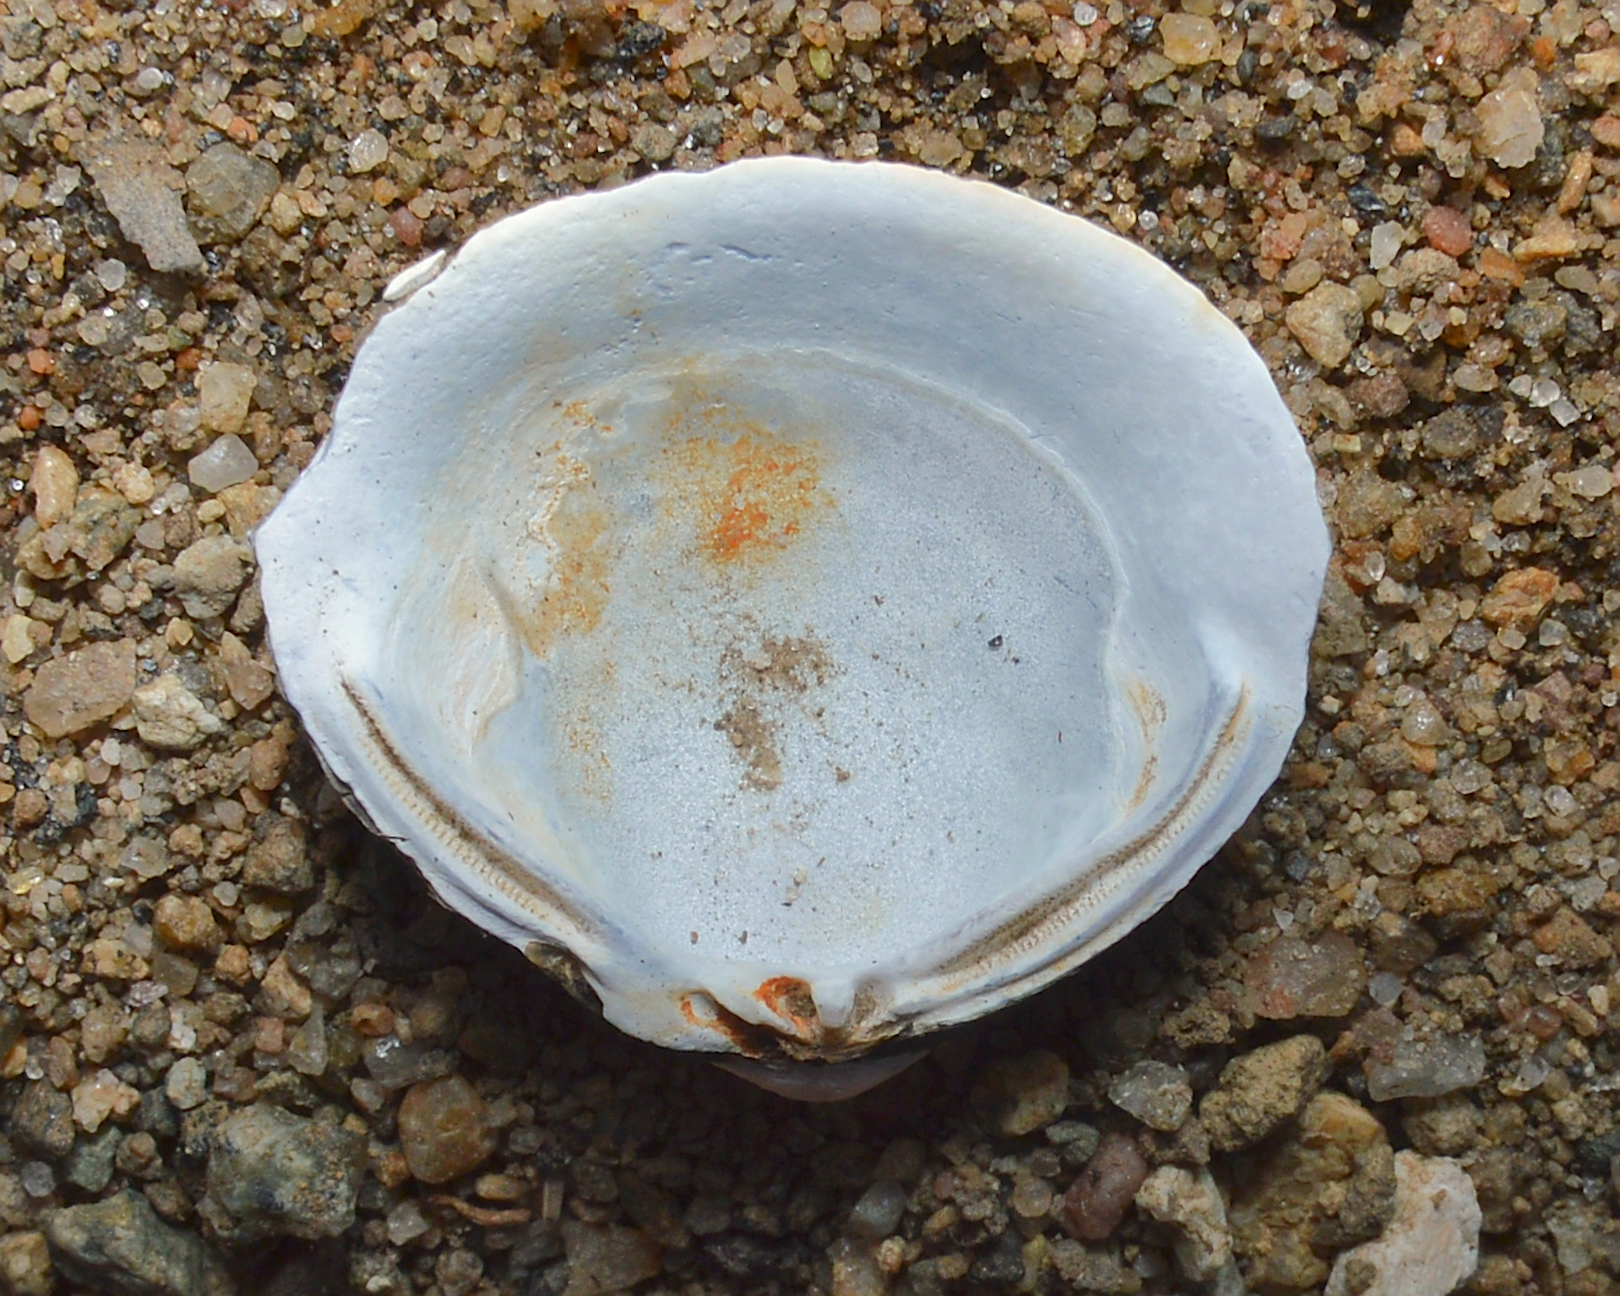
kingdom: Animalia
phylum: Mollusca
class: Bivalvia
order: Venerida
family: Cyrenidae
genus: Corbicula
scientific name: Corbicula fluminea
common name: Asian clam
